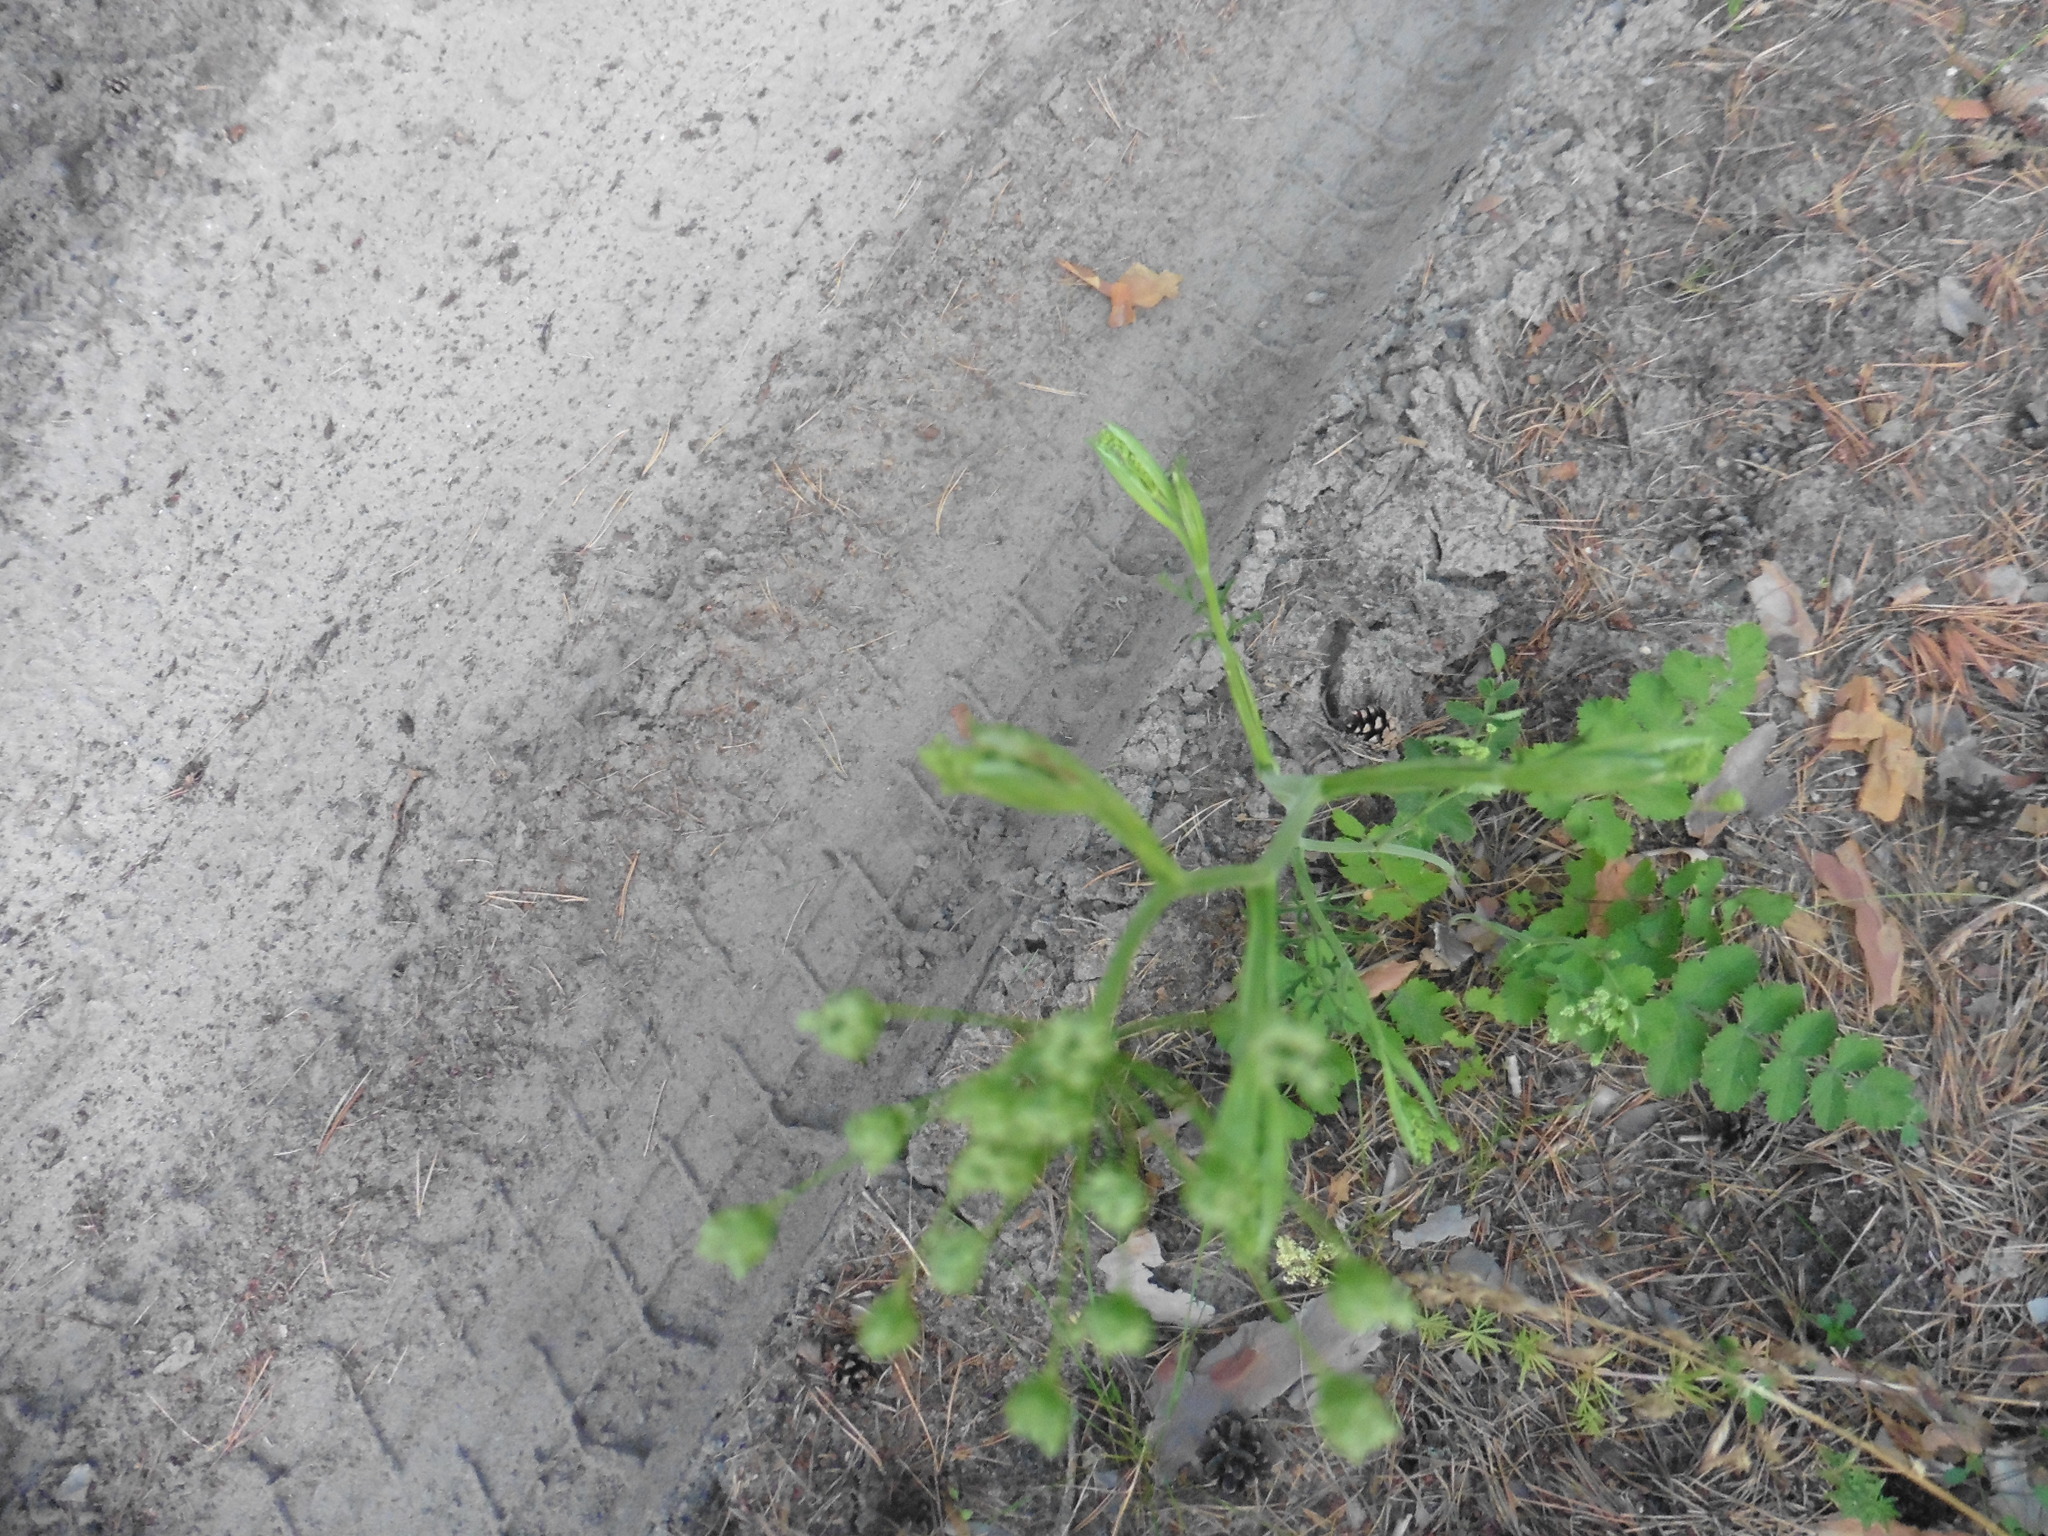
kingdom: Plantae
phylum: Tracheophyta
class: Magnoliopsida
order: Apiales
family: Apiaceae
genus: Pimpinella
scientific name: Pimpinella saxifraga
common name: Burnet-saxifrage
